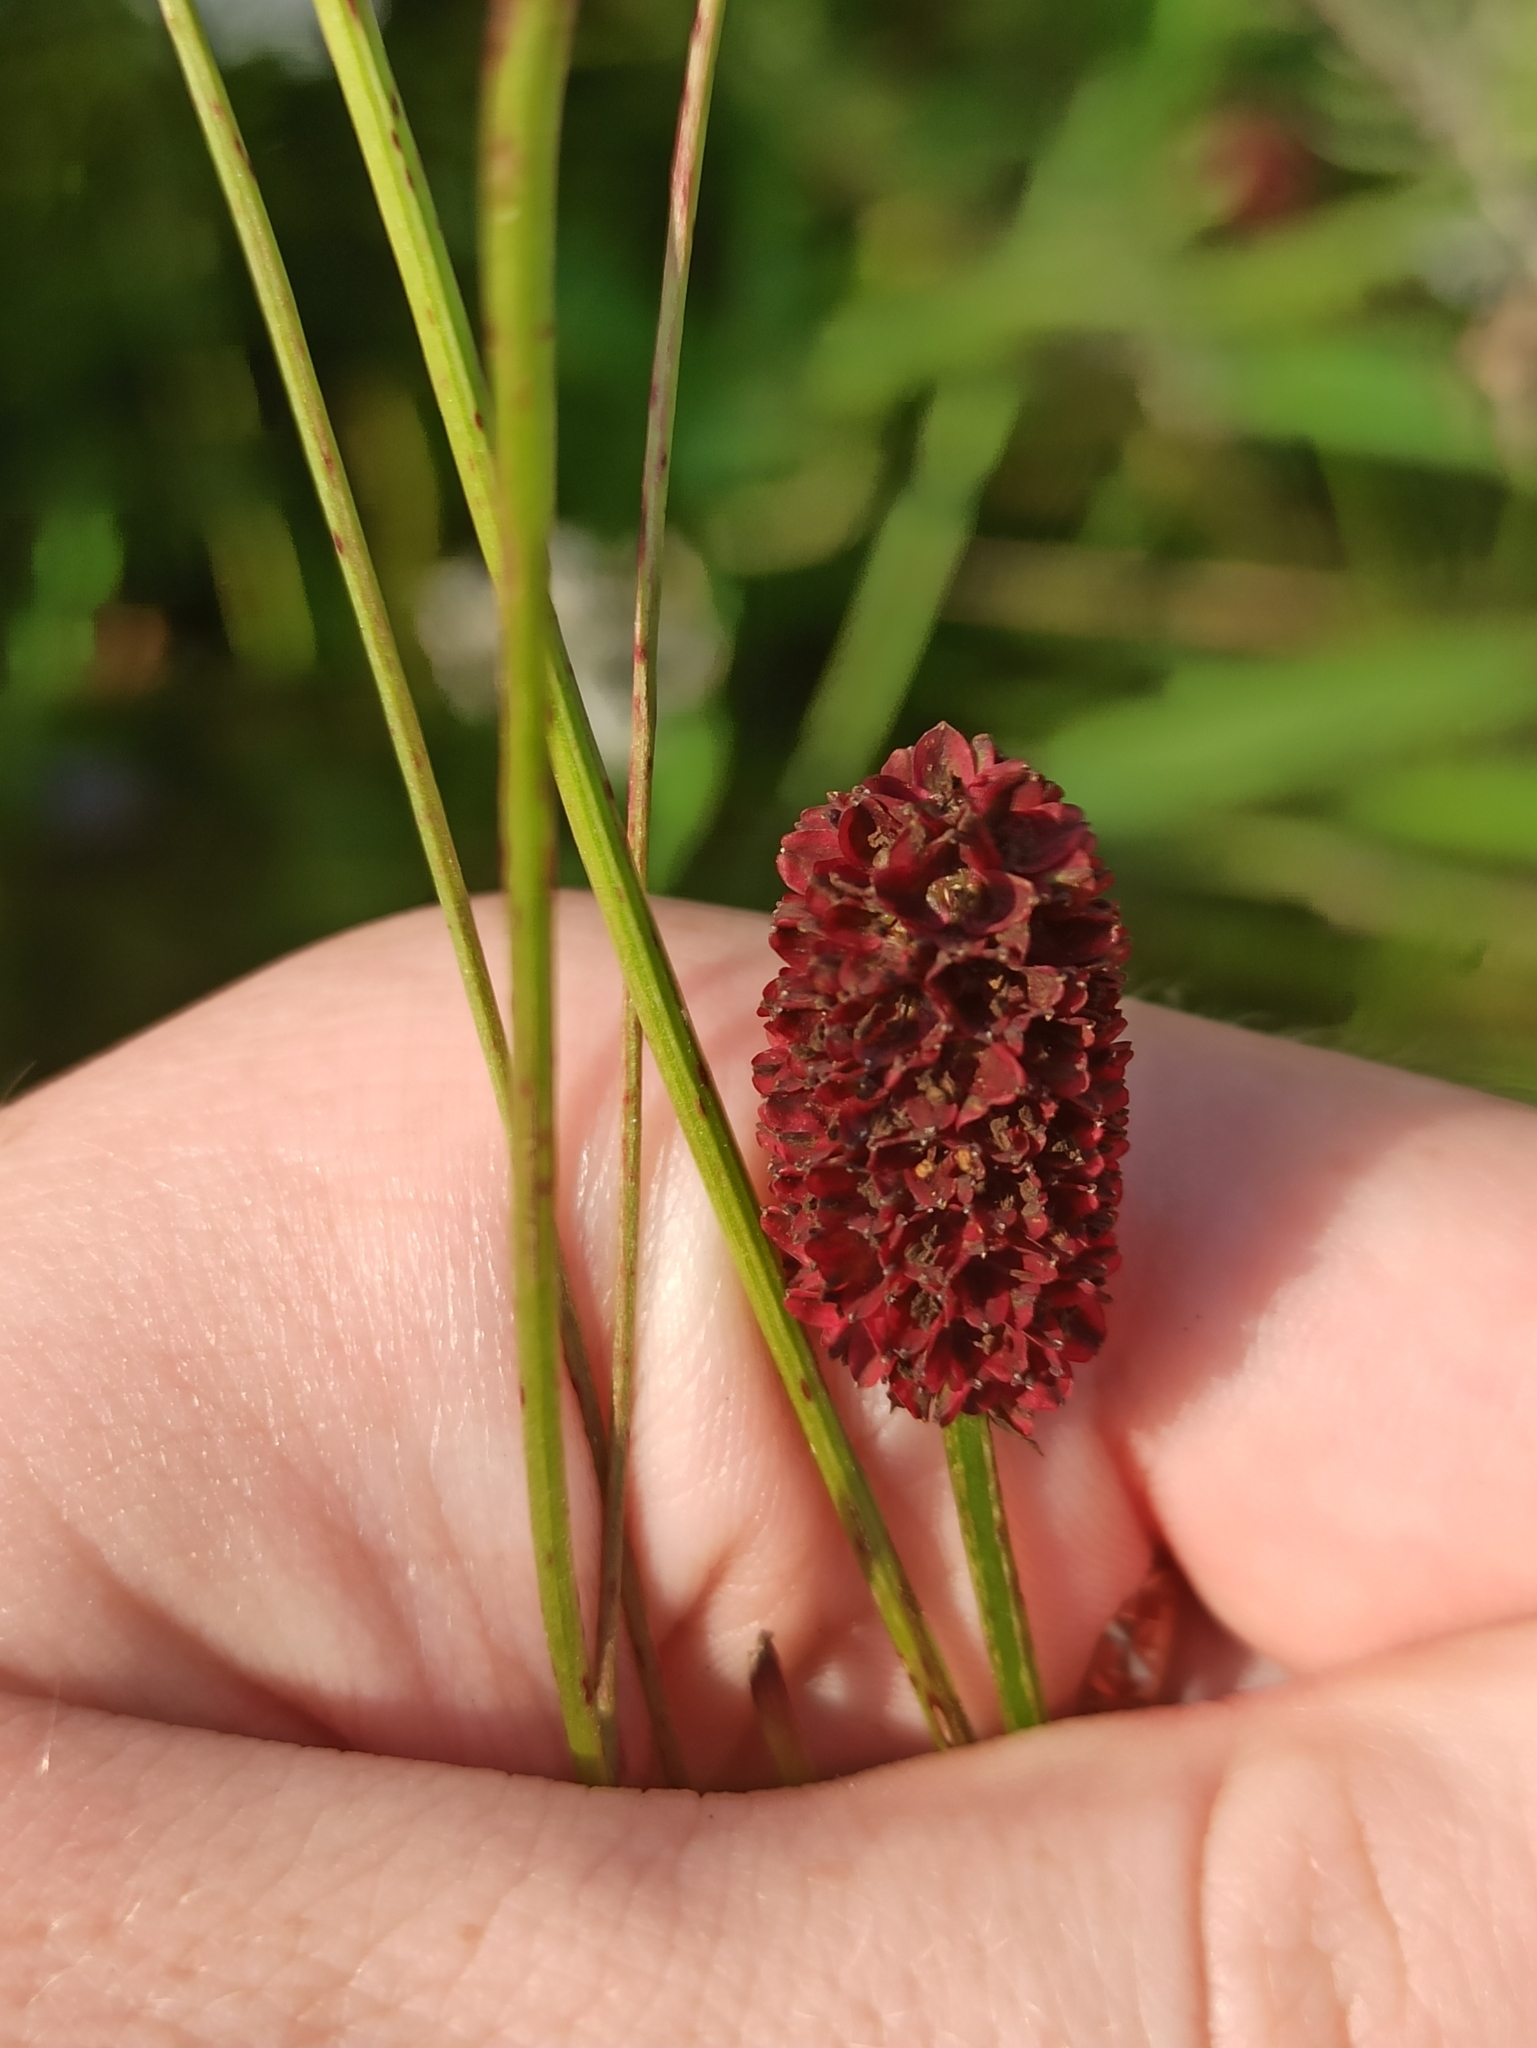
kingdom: Plantae
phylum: Tracheophyta
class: Magnoliopsida
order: Rosales
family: Rosaceae
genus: Sanguisorba
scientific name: Sanguisorba officinalis
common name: Great burnet
